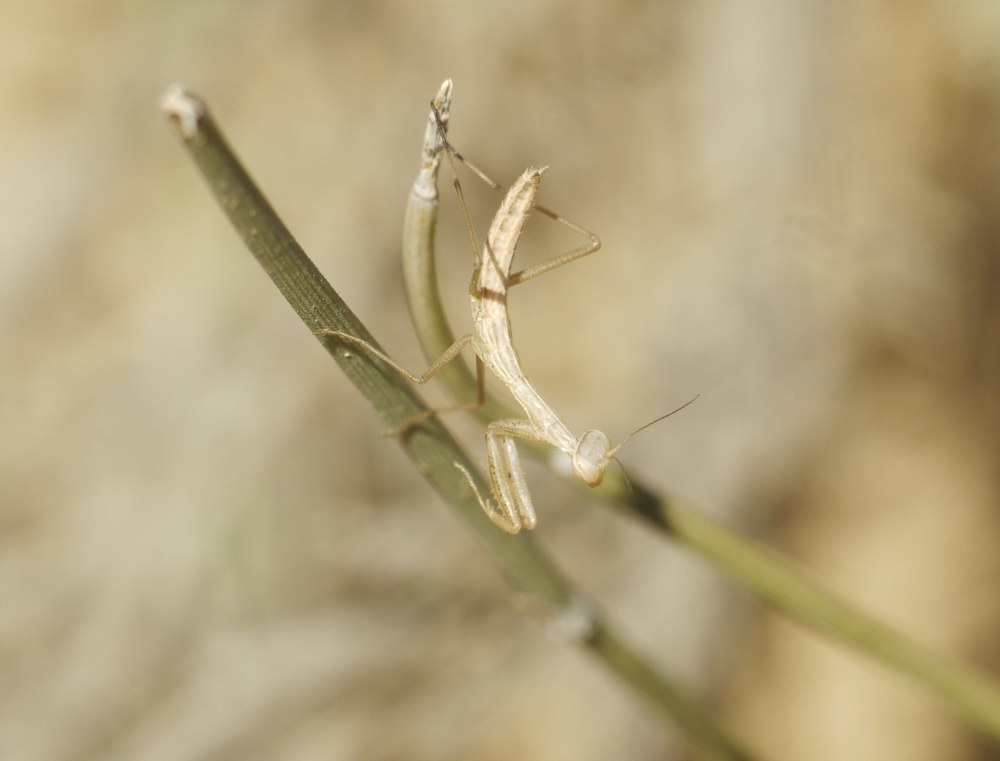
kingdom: Animalia
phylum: Arthropoda
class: Insecta
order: Mantodea
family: Mantidae
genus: Mantis
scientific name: Mantis religiosa
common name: Praying mantis
